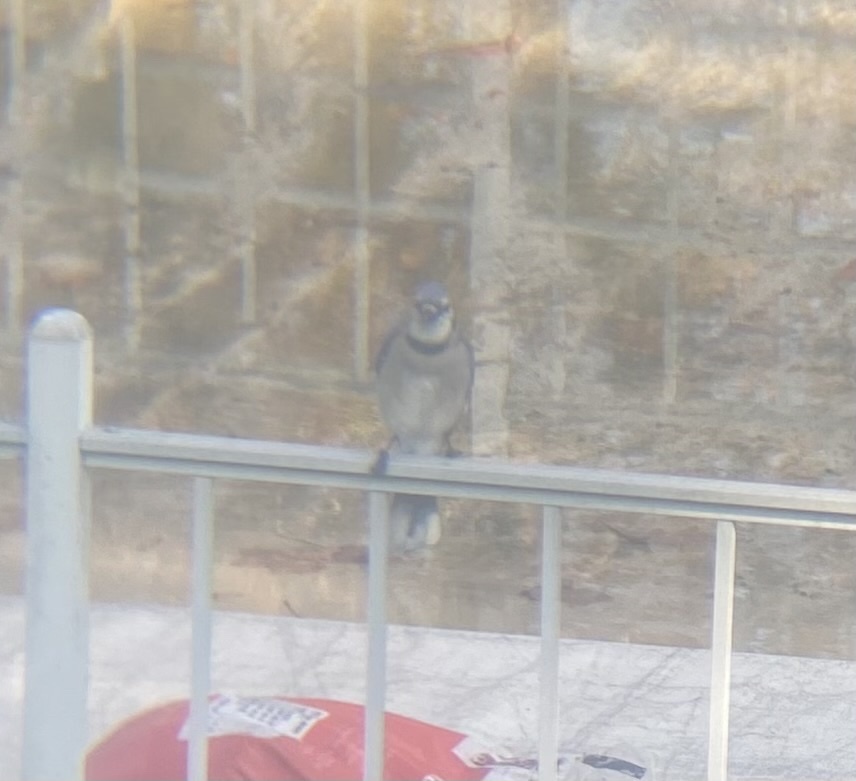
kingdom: Animalia
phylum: Chordata
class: Aves
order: Passeriformes
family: Corvidae
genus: Cyanocitta
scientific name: Cyanocitta cristata
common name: Blue jay
